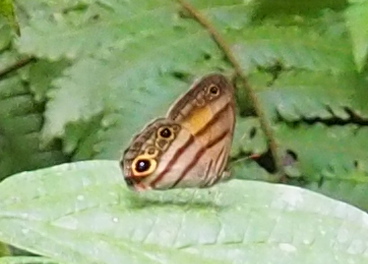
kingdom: Animalia
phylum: Arthropoda
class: Insecta
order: Lepidoptera
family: Nymphalidae
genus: Modica
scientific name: Modica
